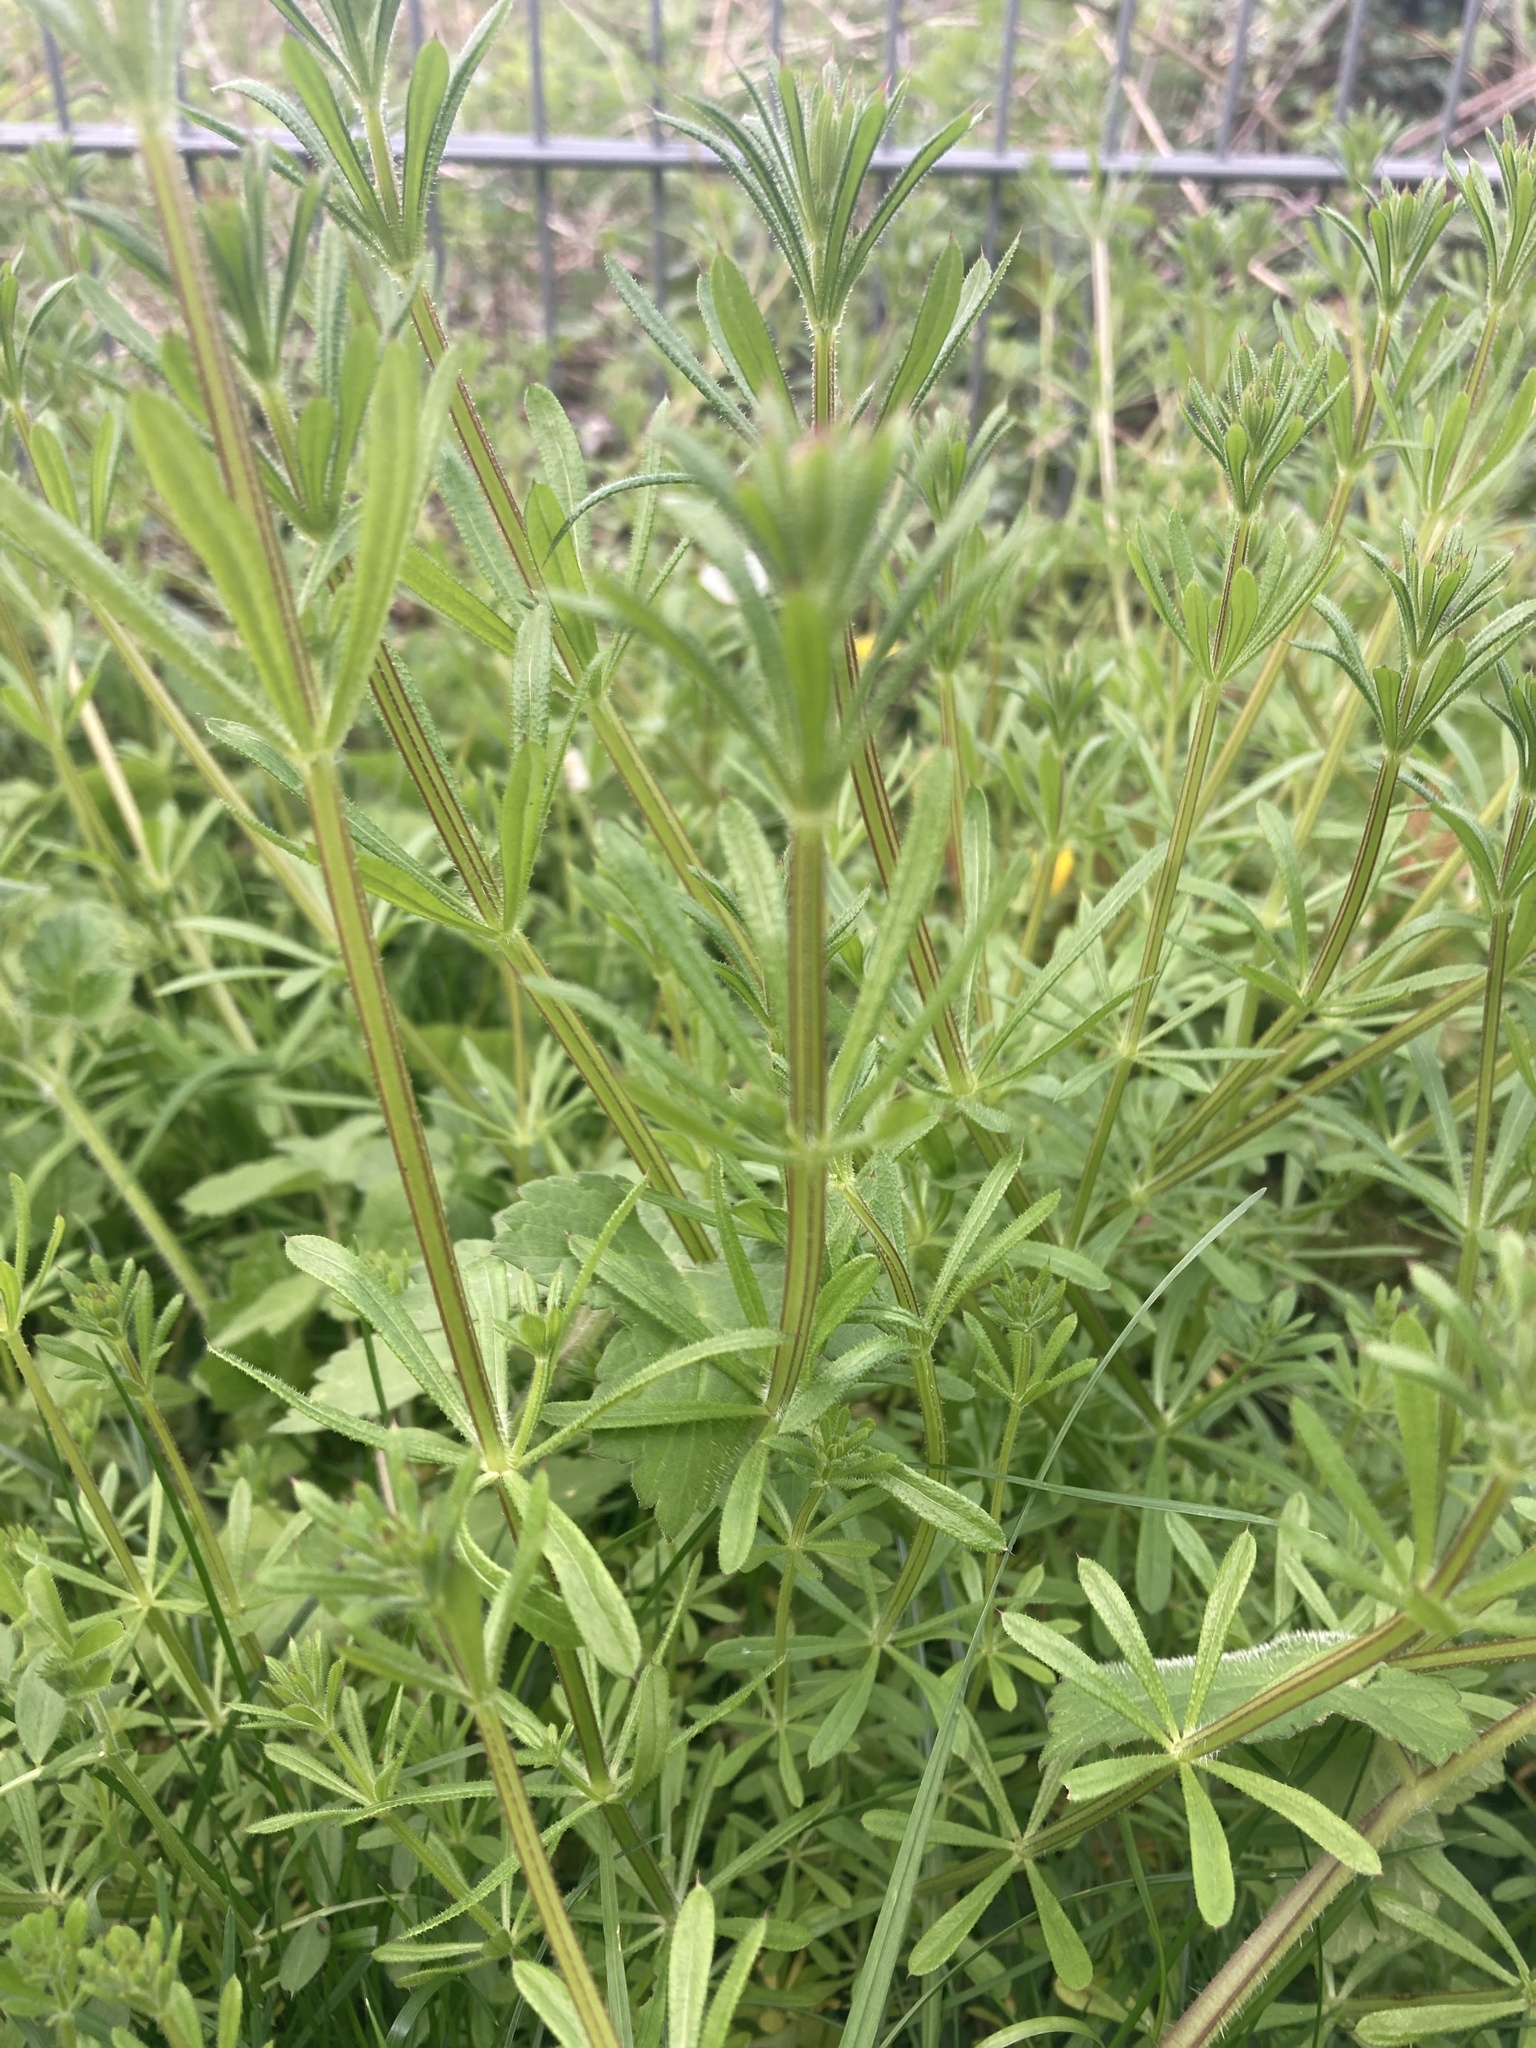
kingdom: Plantae
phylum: Tracheophyta
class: Magnoliopsida
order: Gentianales
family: Rubiaceae
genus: Galium
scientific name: Galium aparine
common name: Cleavers
